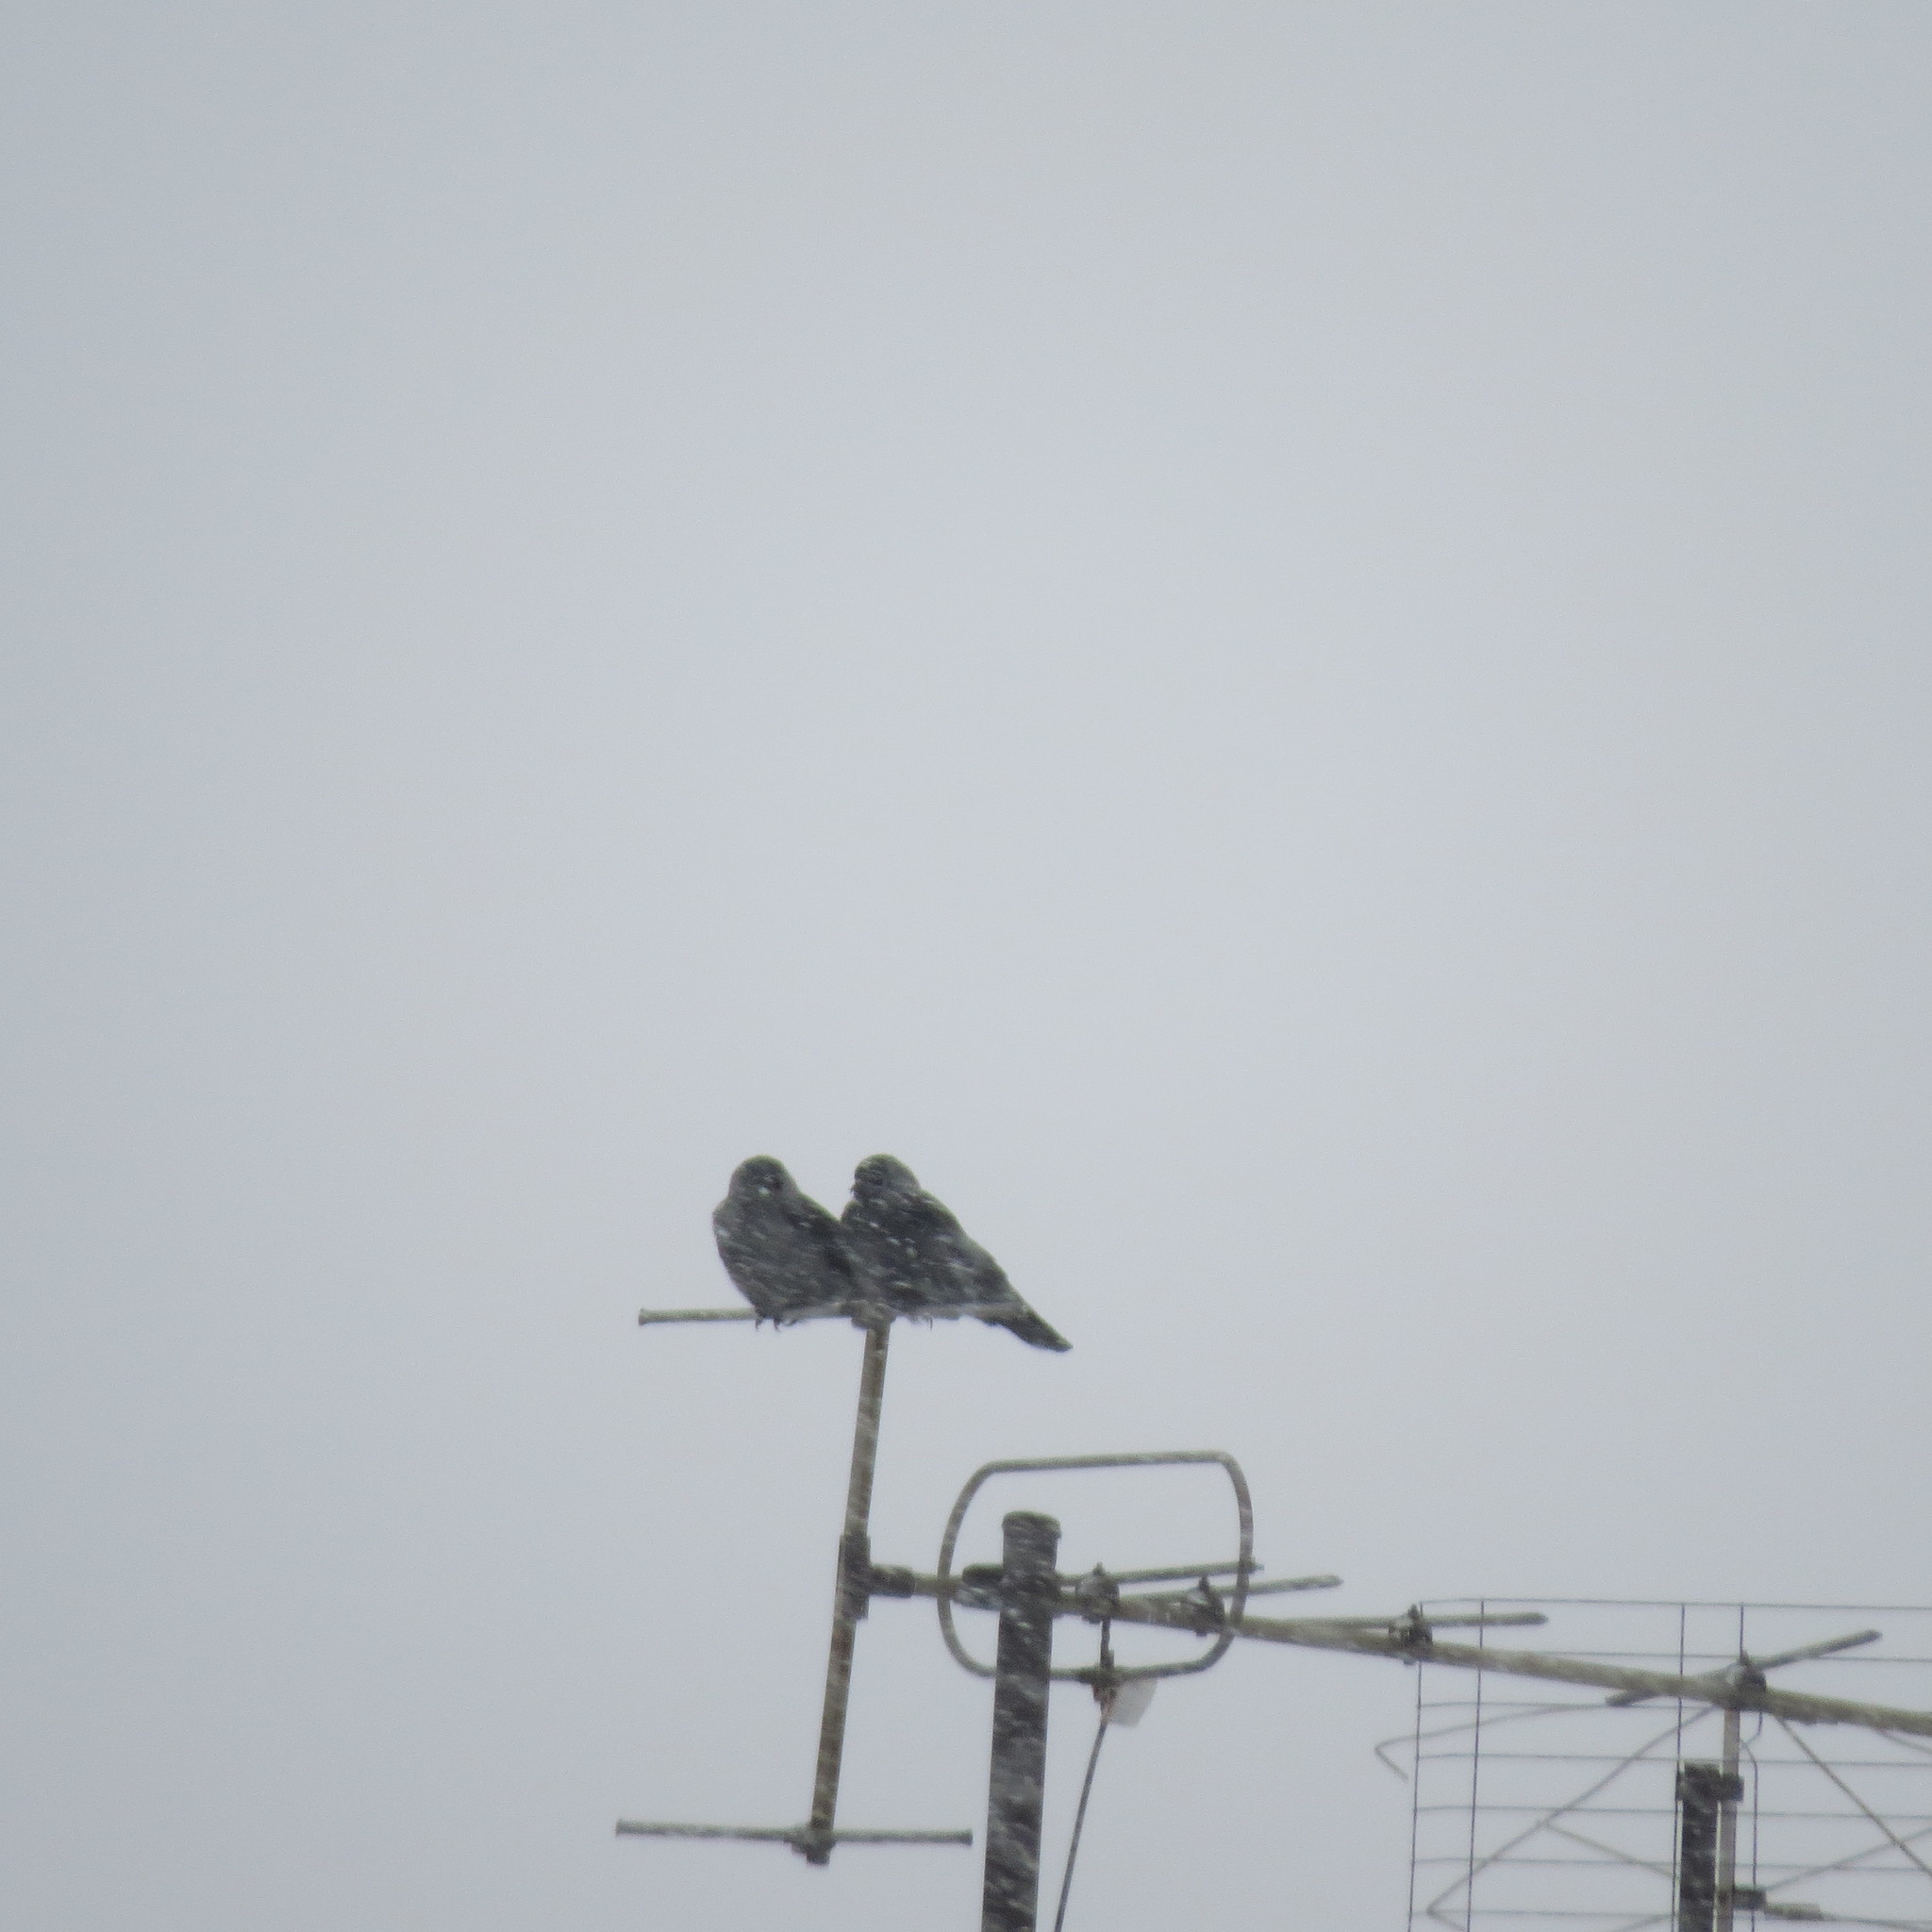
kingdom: Animalia
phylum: Chordata
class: Aves
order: Passeriformes
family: Corvidae
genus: Coloeus
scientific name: Coloeus monedula
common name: Western jackdaw
